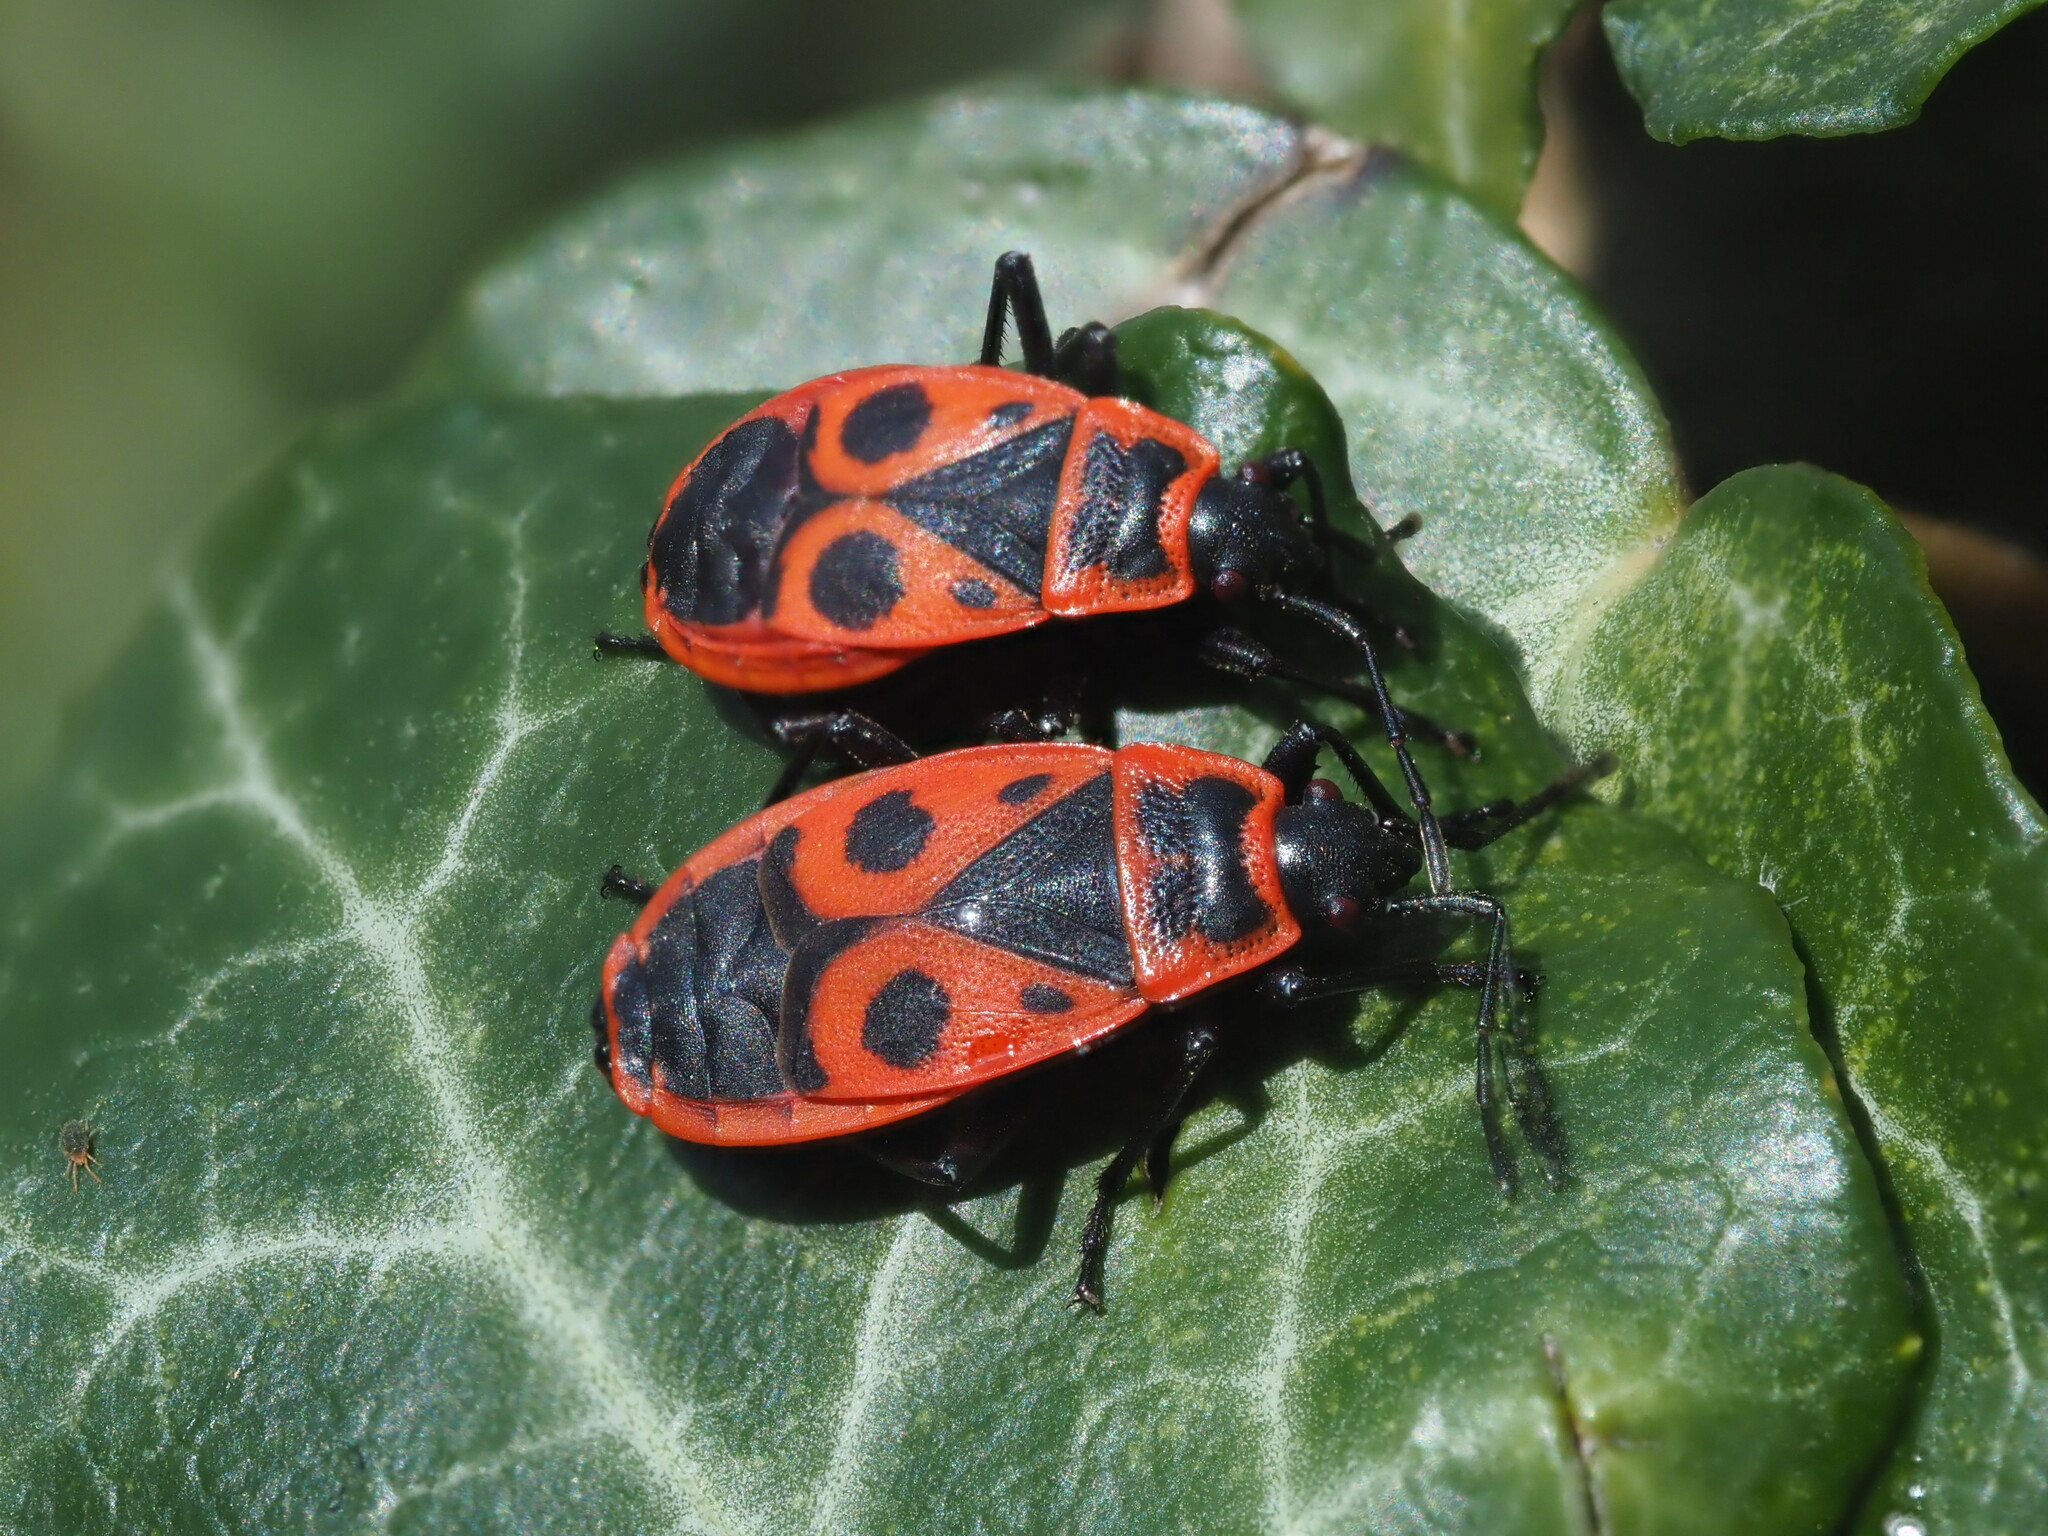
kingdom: Animalia
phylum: Arthropoda
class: Insecta
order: Hemiptera
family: Pyrrhocoridae
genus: Pyrrhocoris
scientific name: Pyrrhocoris apterus
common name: Firebug
